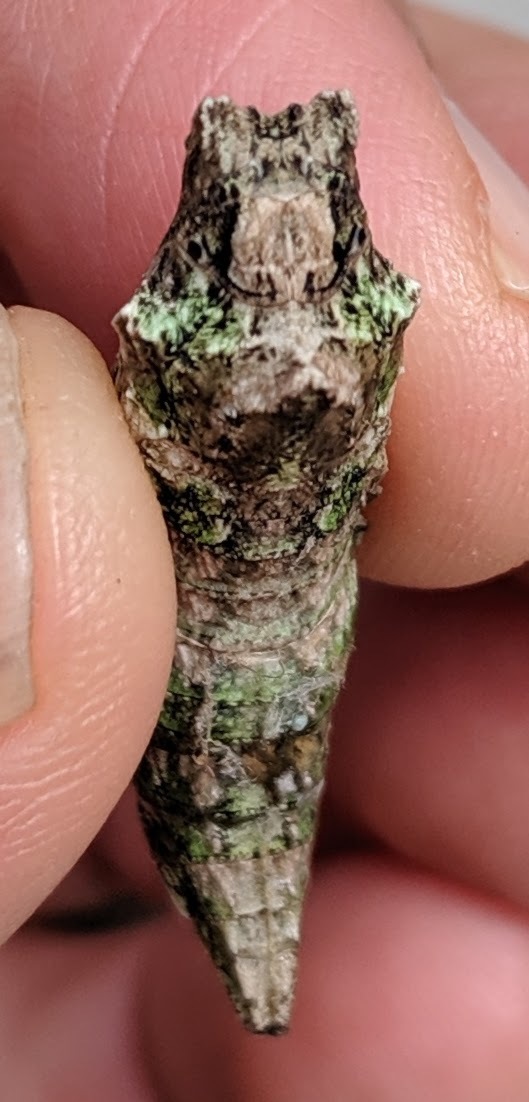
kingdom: Animalia
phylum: Arthropoda
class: Insecta
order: Lepidoptera
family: Papilionidae
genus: Papilio
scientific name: Papilio glaucus
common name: Tiger swallowtail
